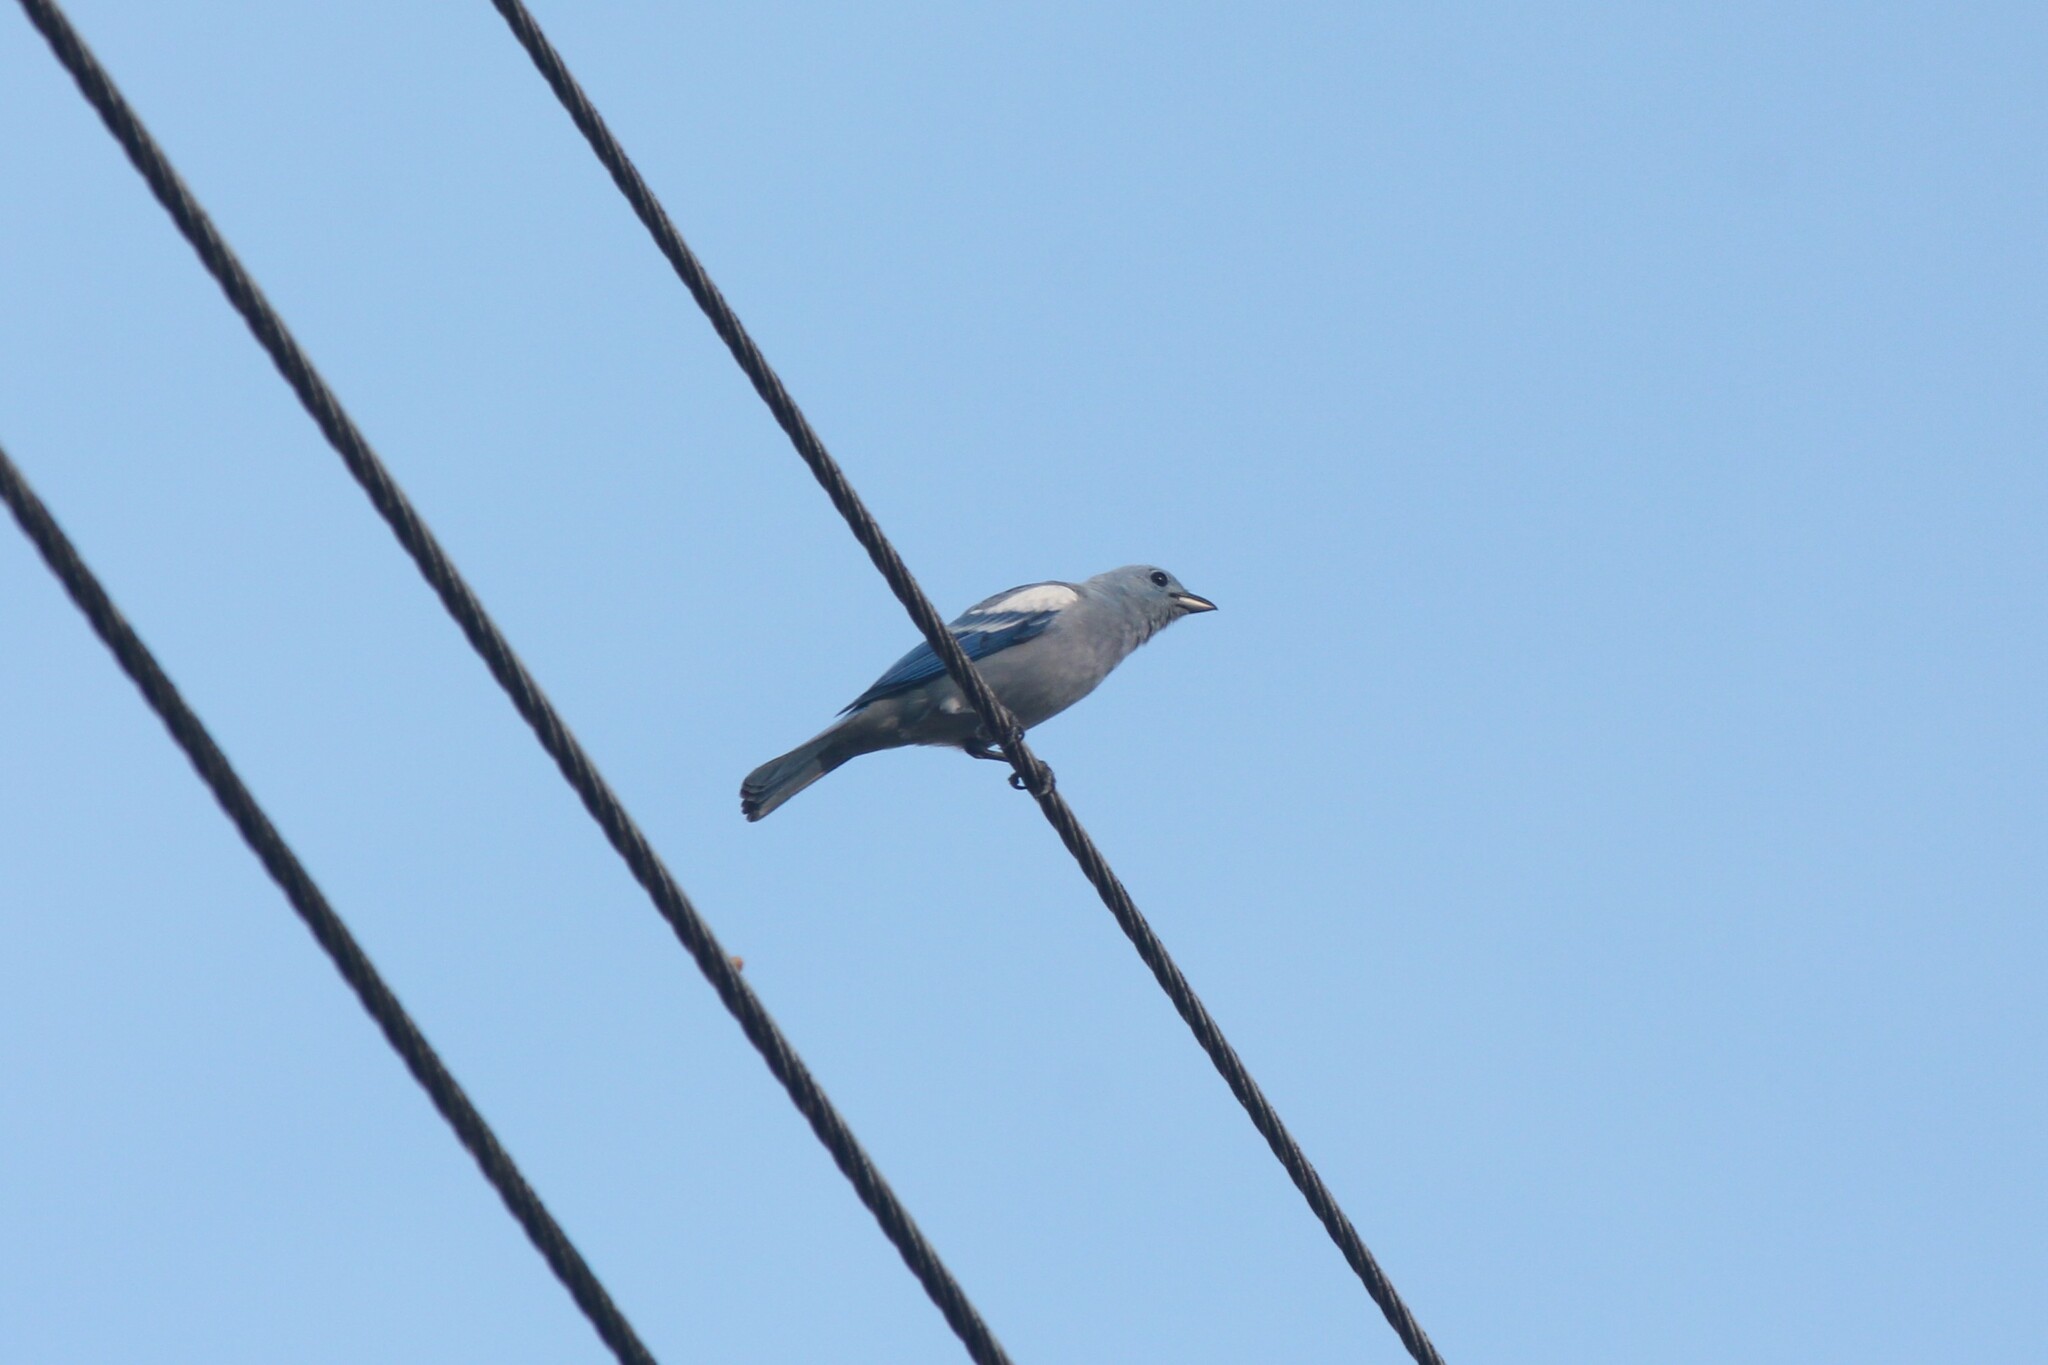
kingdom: Animalia
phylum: Chordata
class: Aves
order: Passeriformes
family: Thraupidae
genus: Thraupis
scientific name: Thraupis episcopus
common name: Blue-grey tanager
